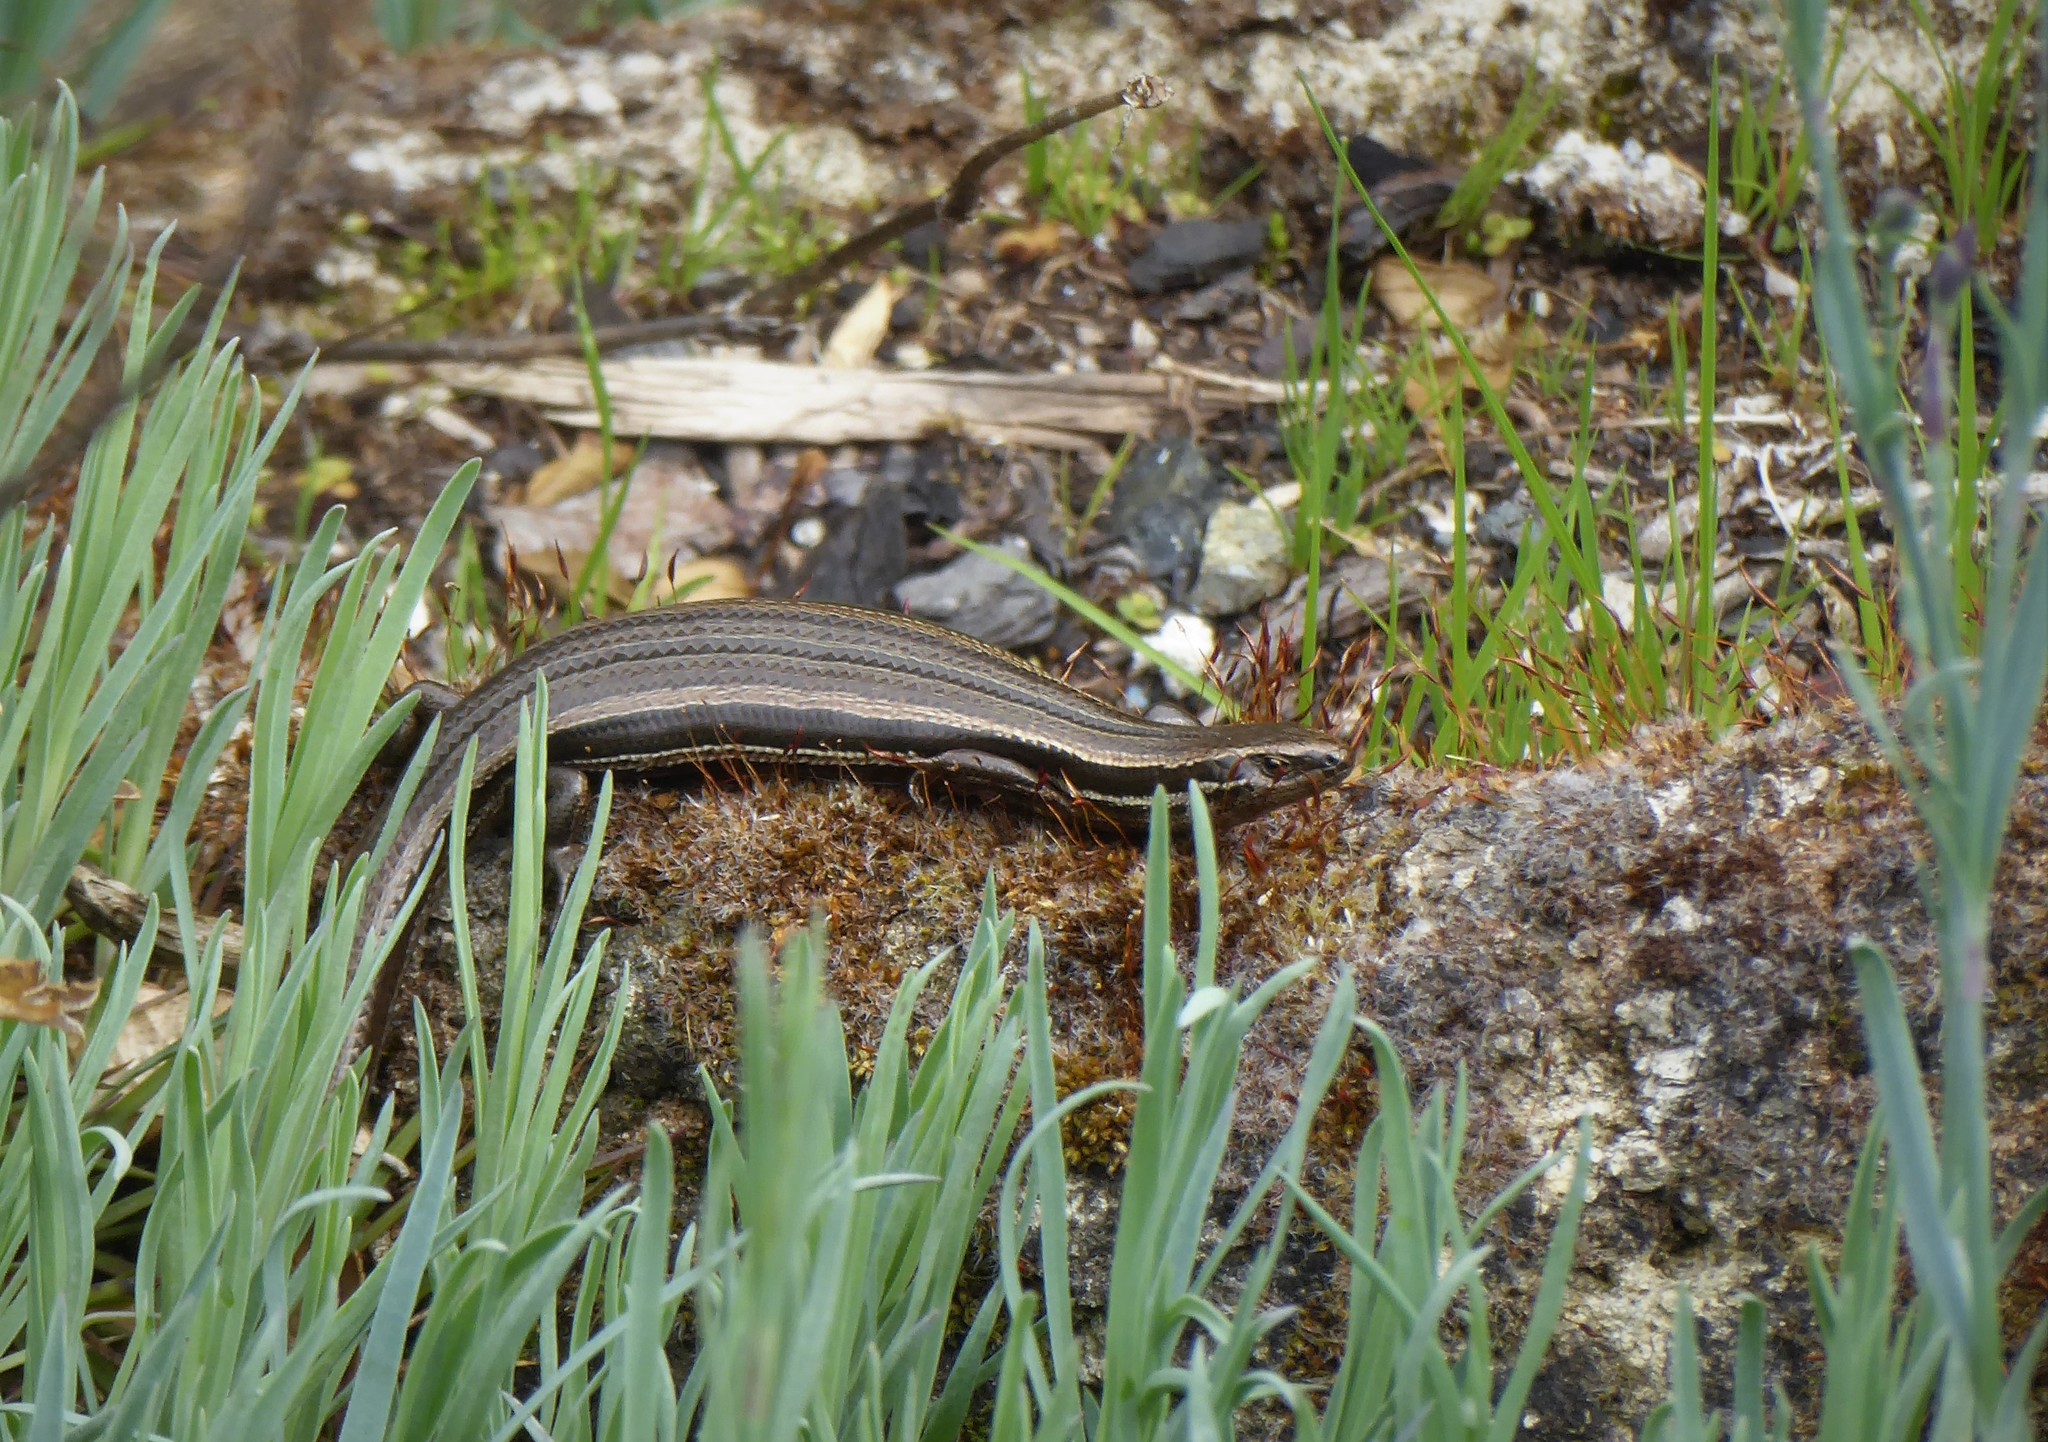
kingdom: Animalia
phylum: Chordata
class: Squamata
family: Scincidae
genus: Oligosoma
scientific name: Oligosoma polychroma
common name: Common new zealand skink
